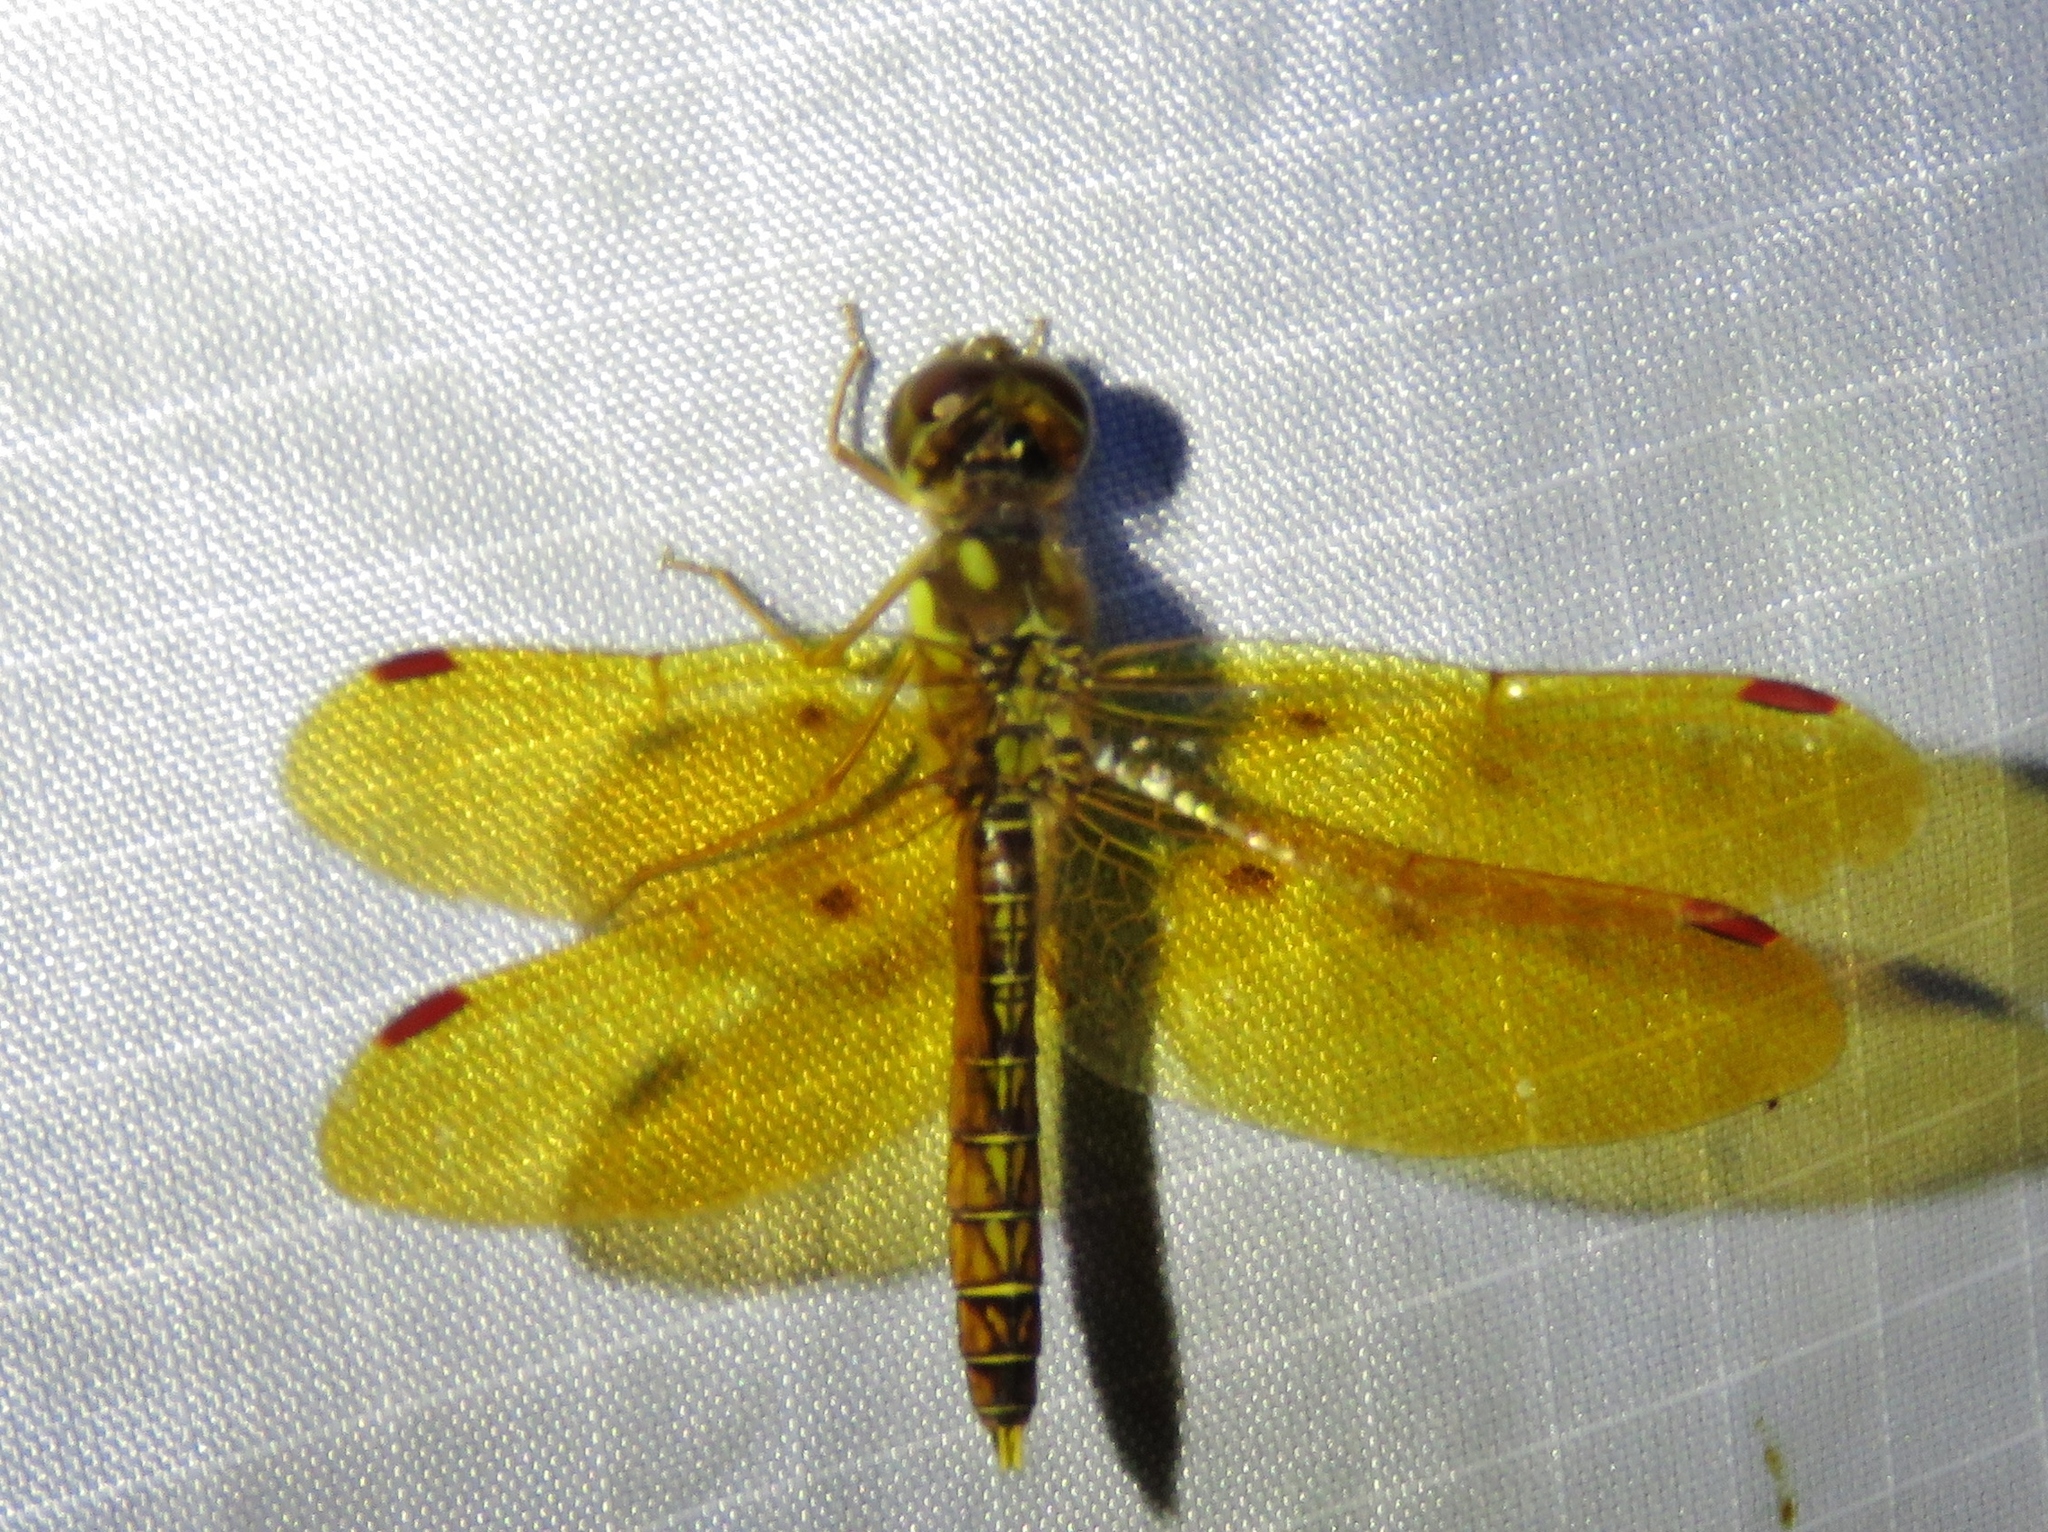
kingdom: Animalia
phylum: Arthropoda
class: Insecta
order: Odonata
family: Libellulidae
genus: Perithemis
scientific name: Perithemis tenera
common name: Eastern amberwing
